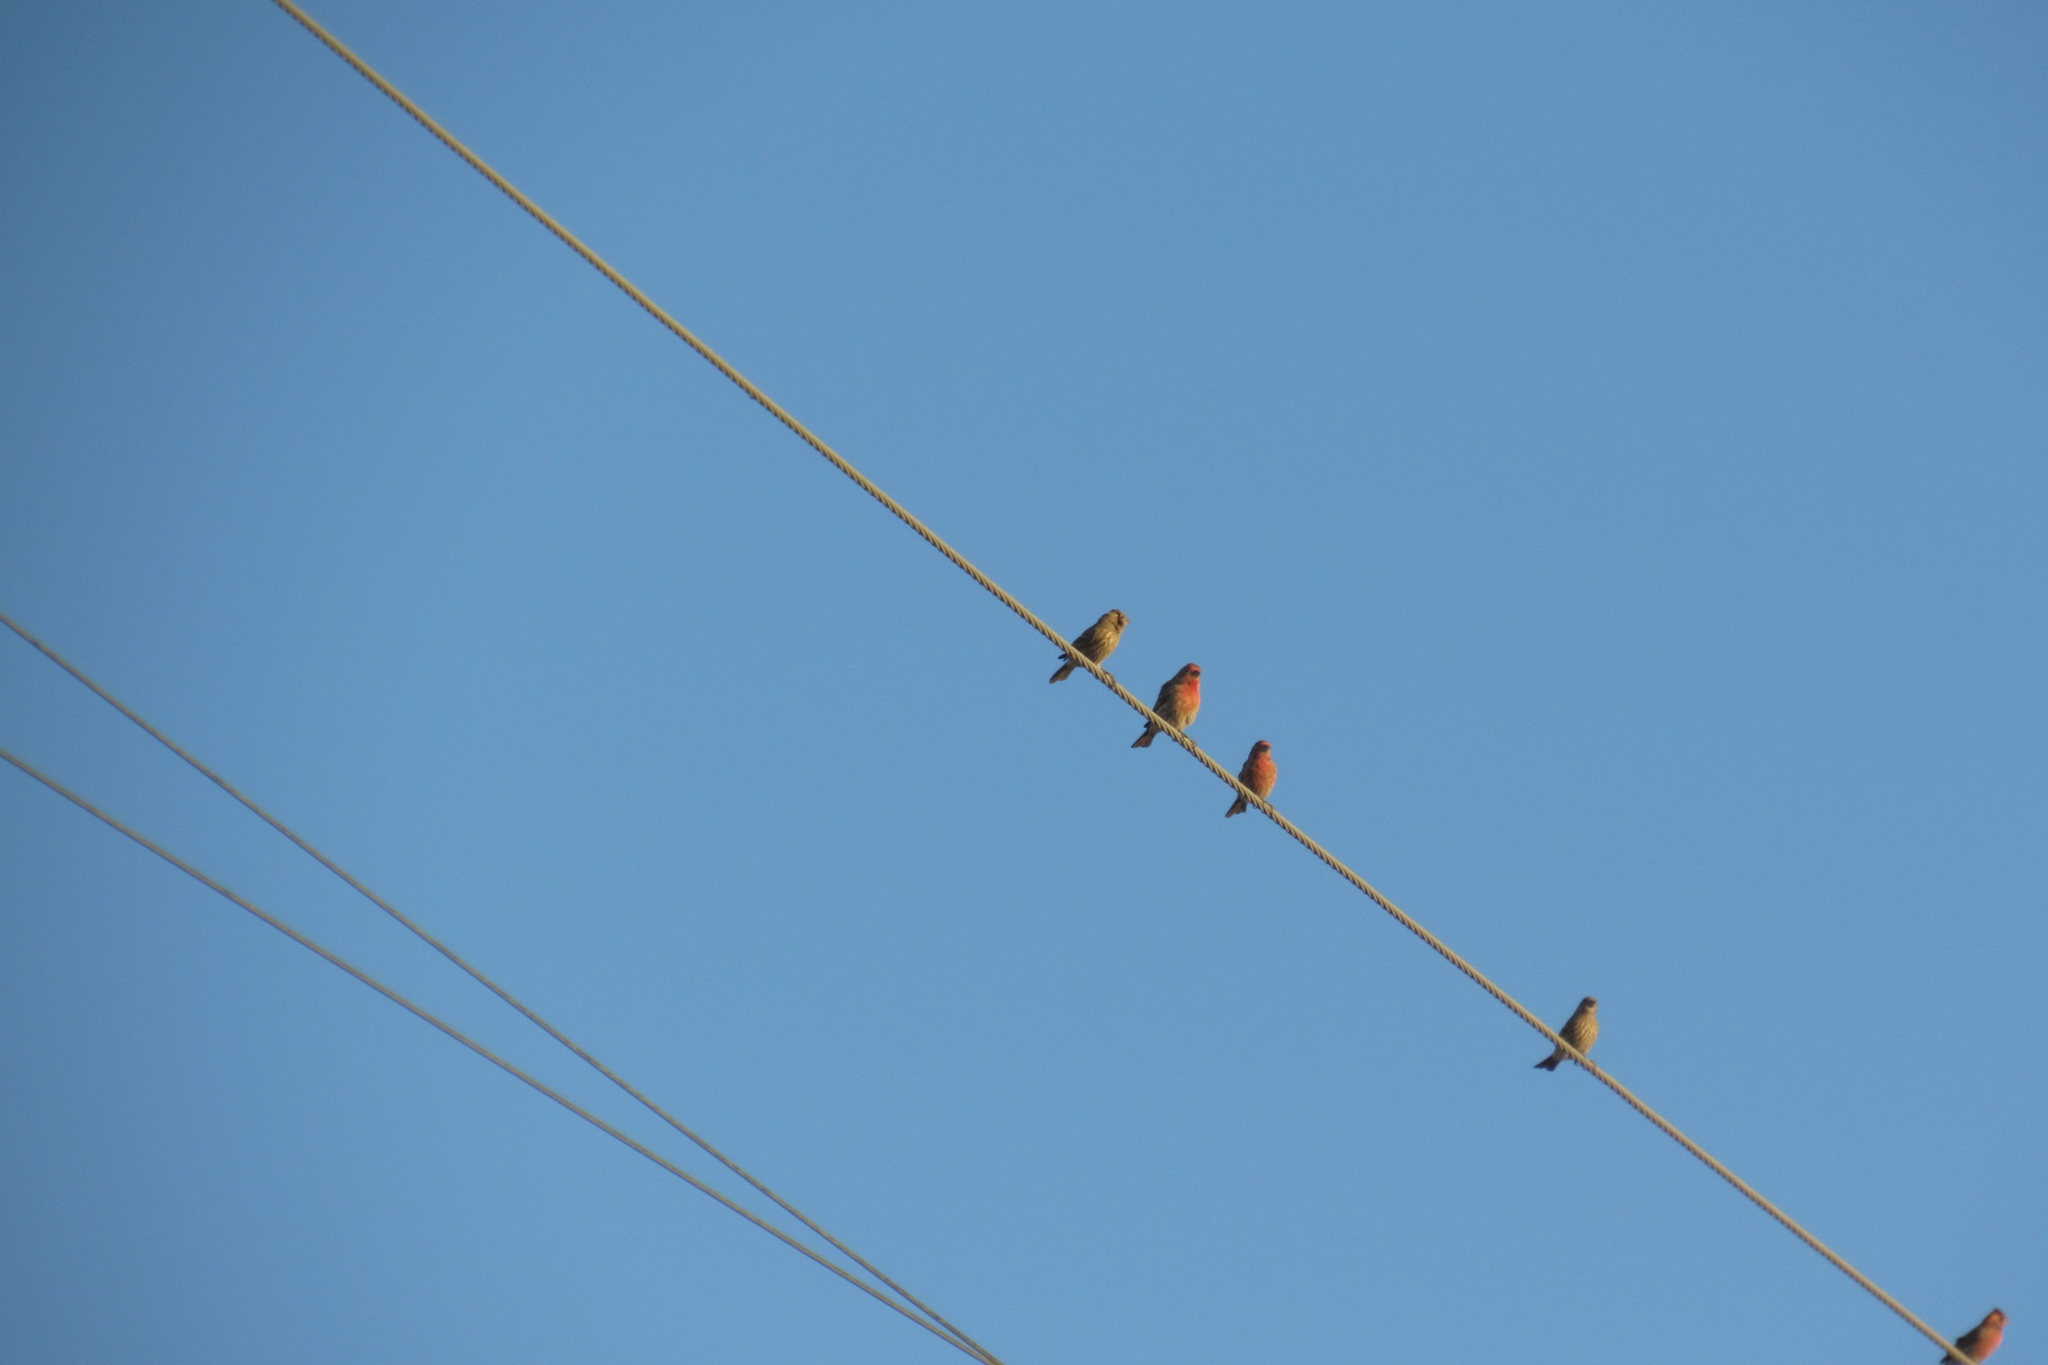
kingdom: Animalia
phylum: Chordata
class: Aves
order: Passeriformes
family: Fringillidae
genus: Haemorhous
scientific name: Haemorhous mexicanus
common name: House finch
